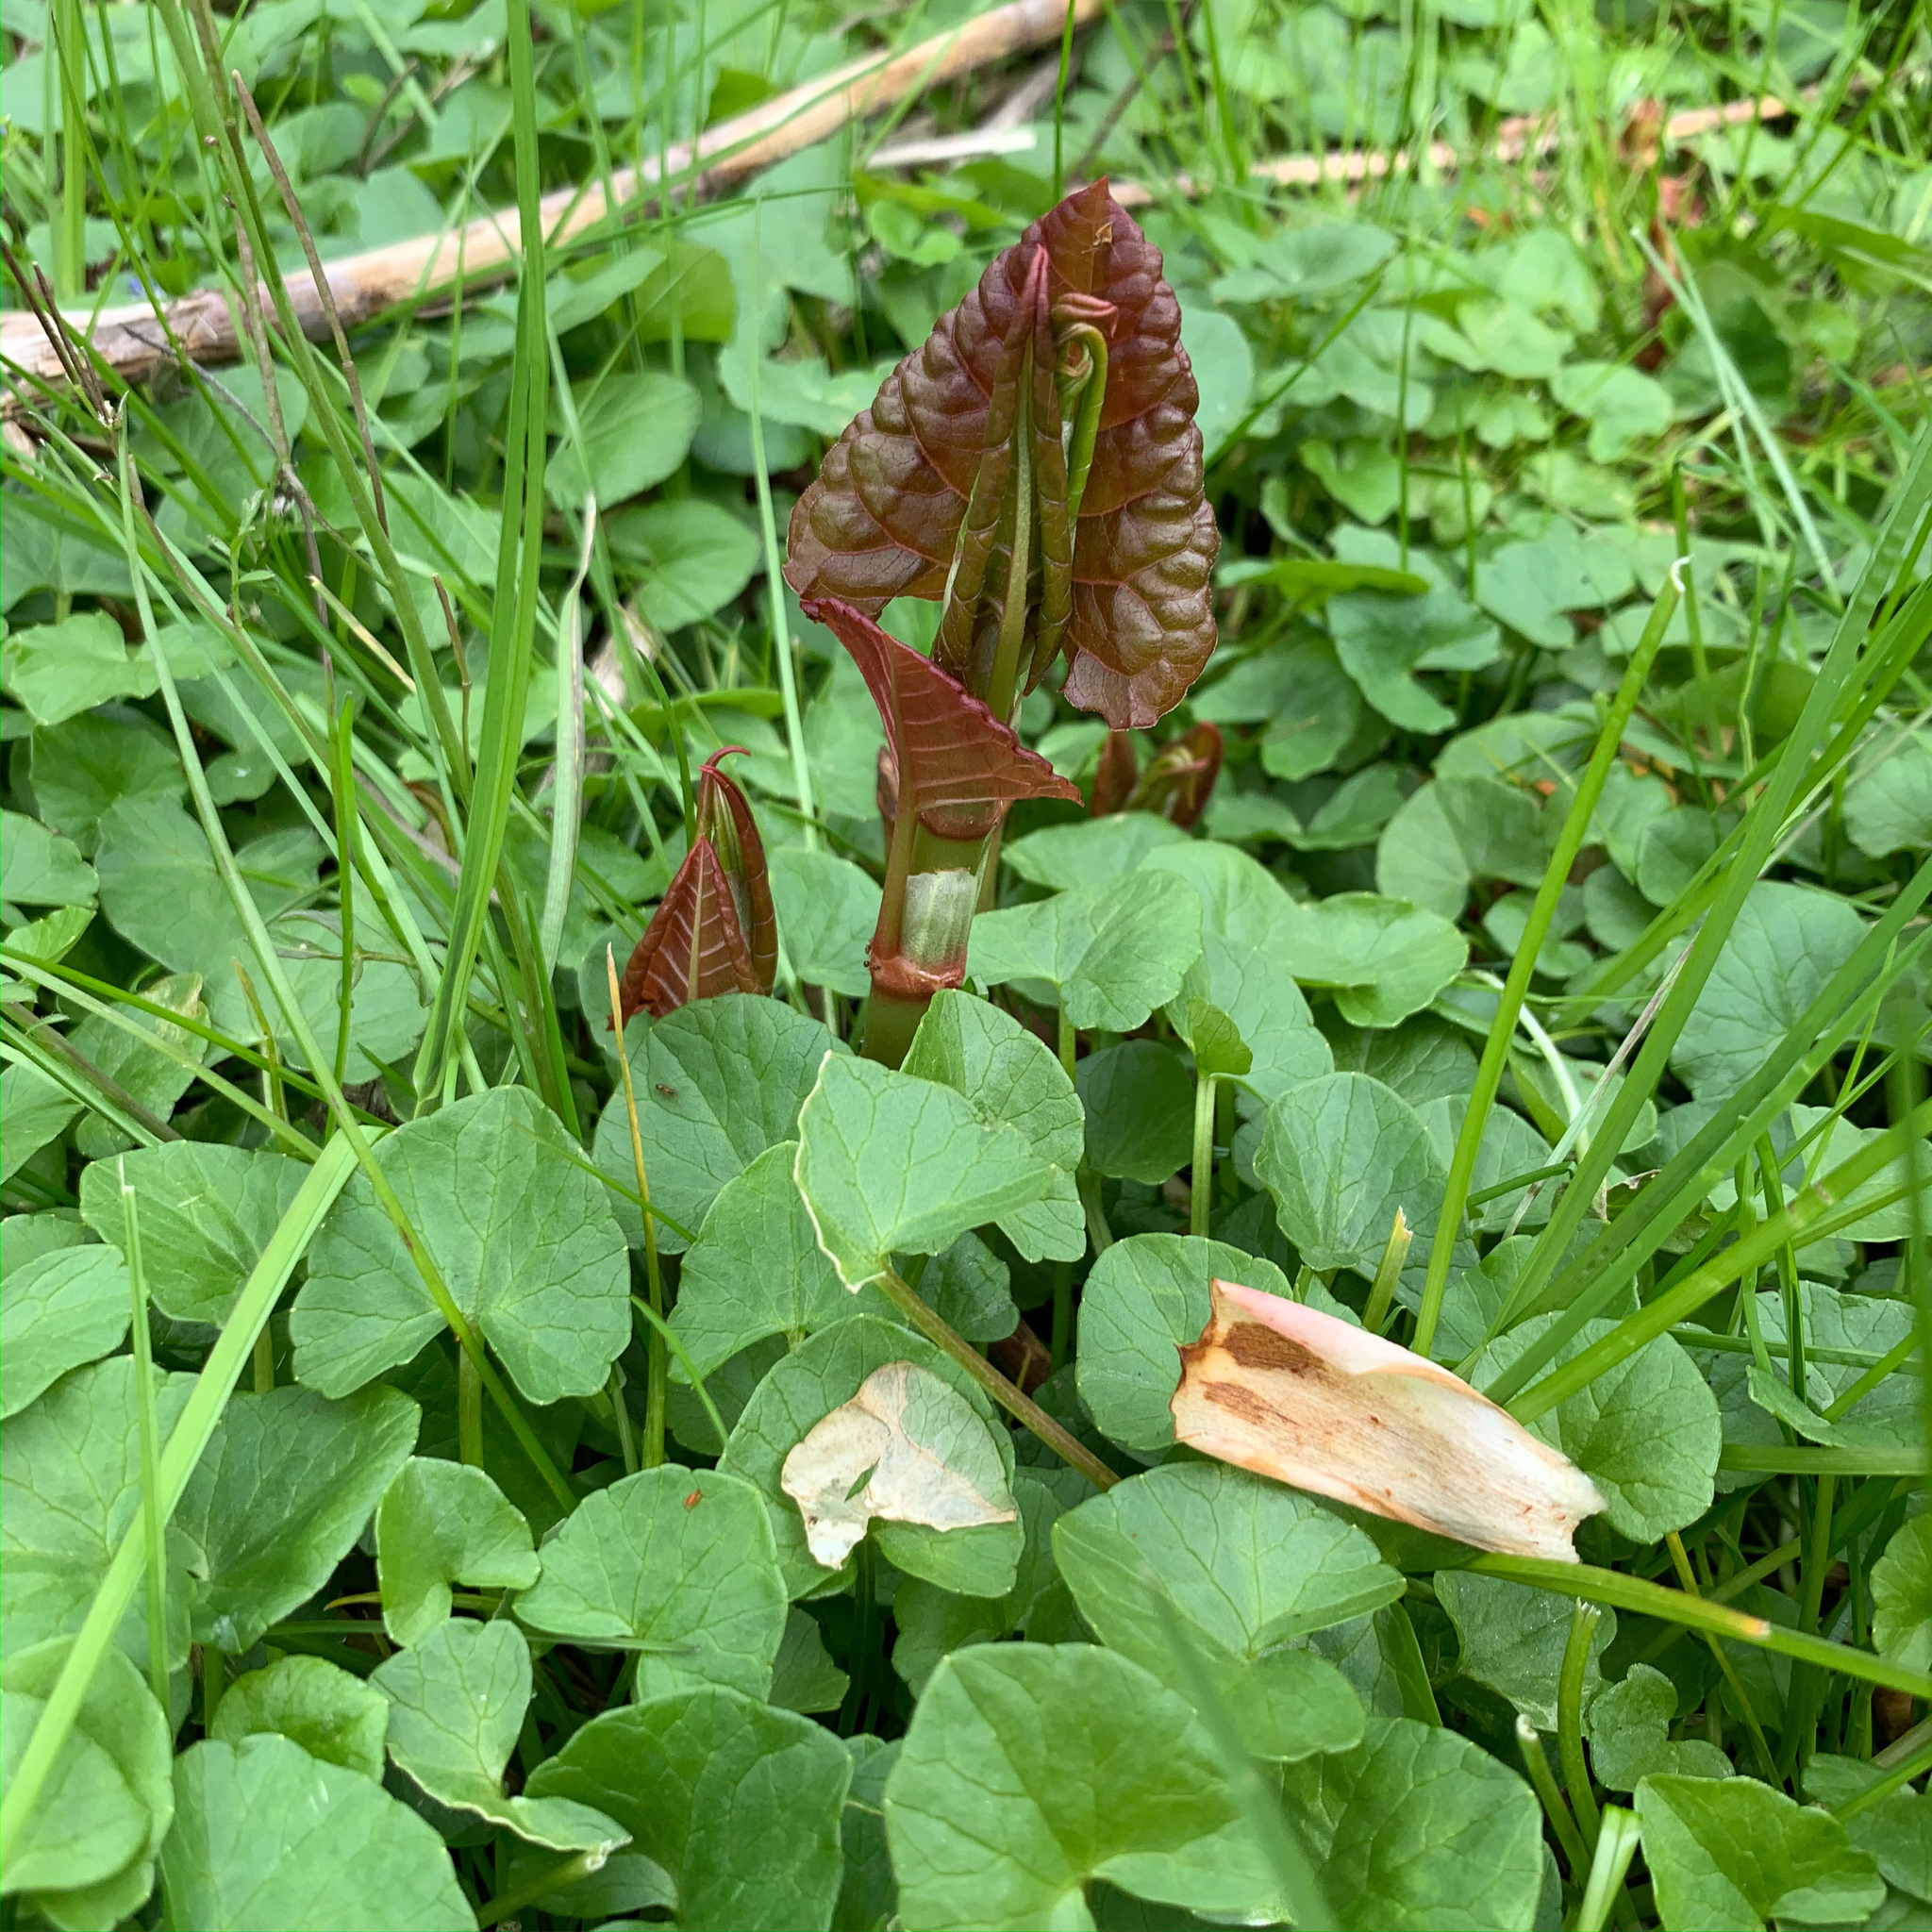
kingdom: Plantae
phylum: Tracheophyta
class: Magnoliopsida
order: Caryophyllales
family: Polygonaceae
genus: Reynoutria
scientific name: Reynoutria japonica
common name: Japanese knotweed
